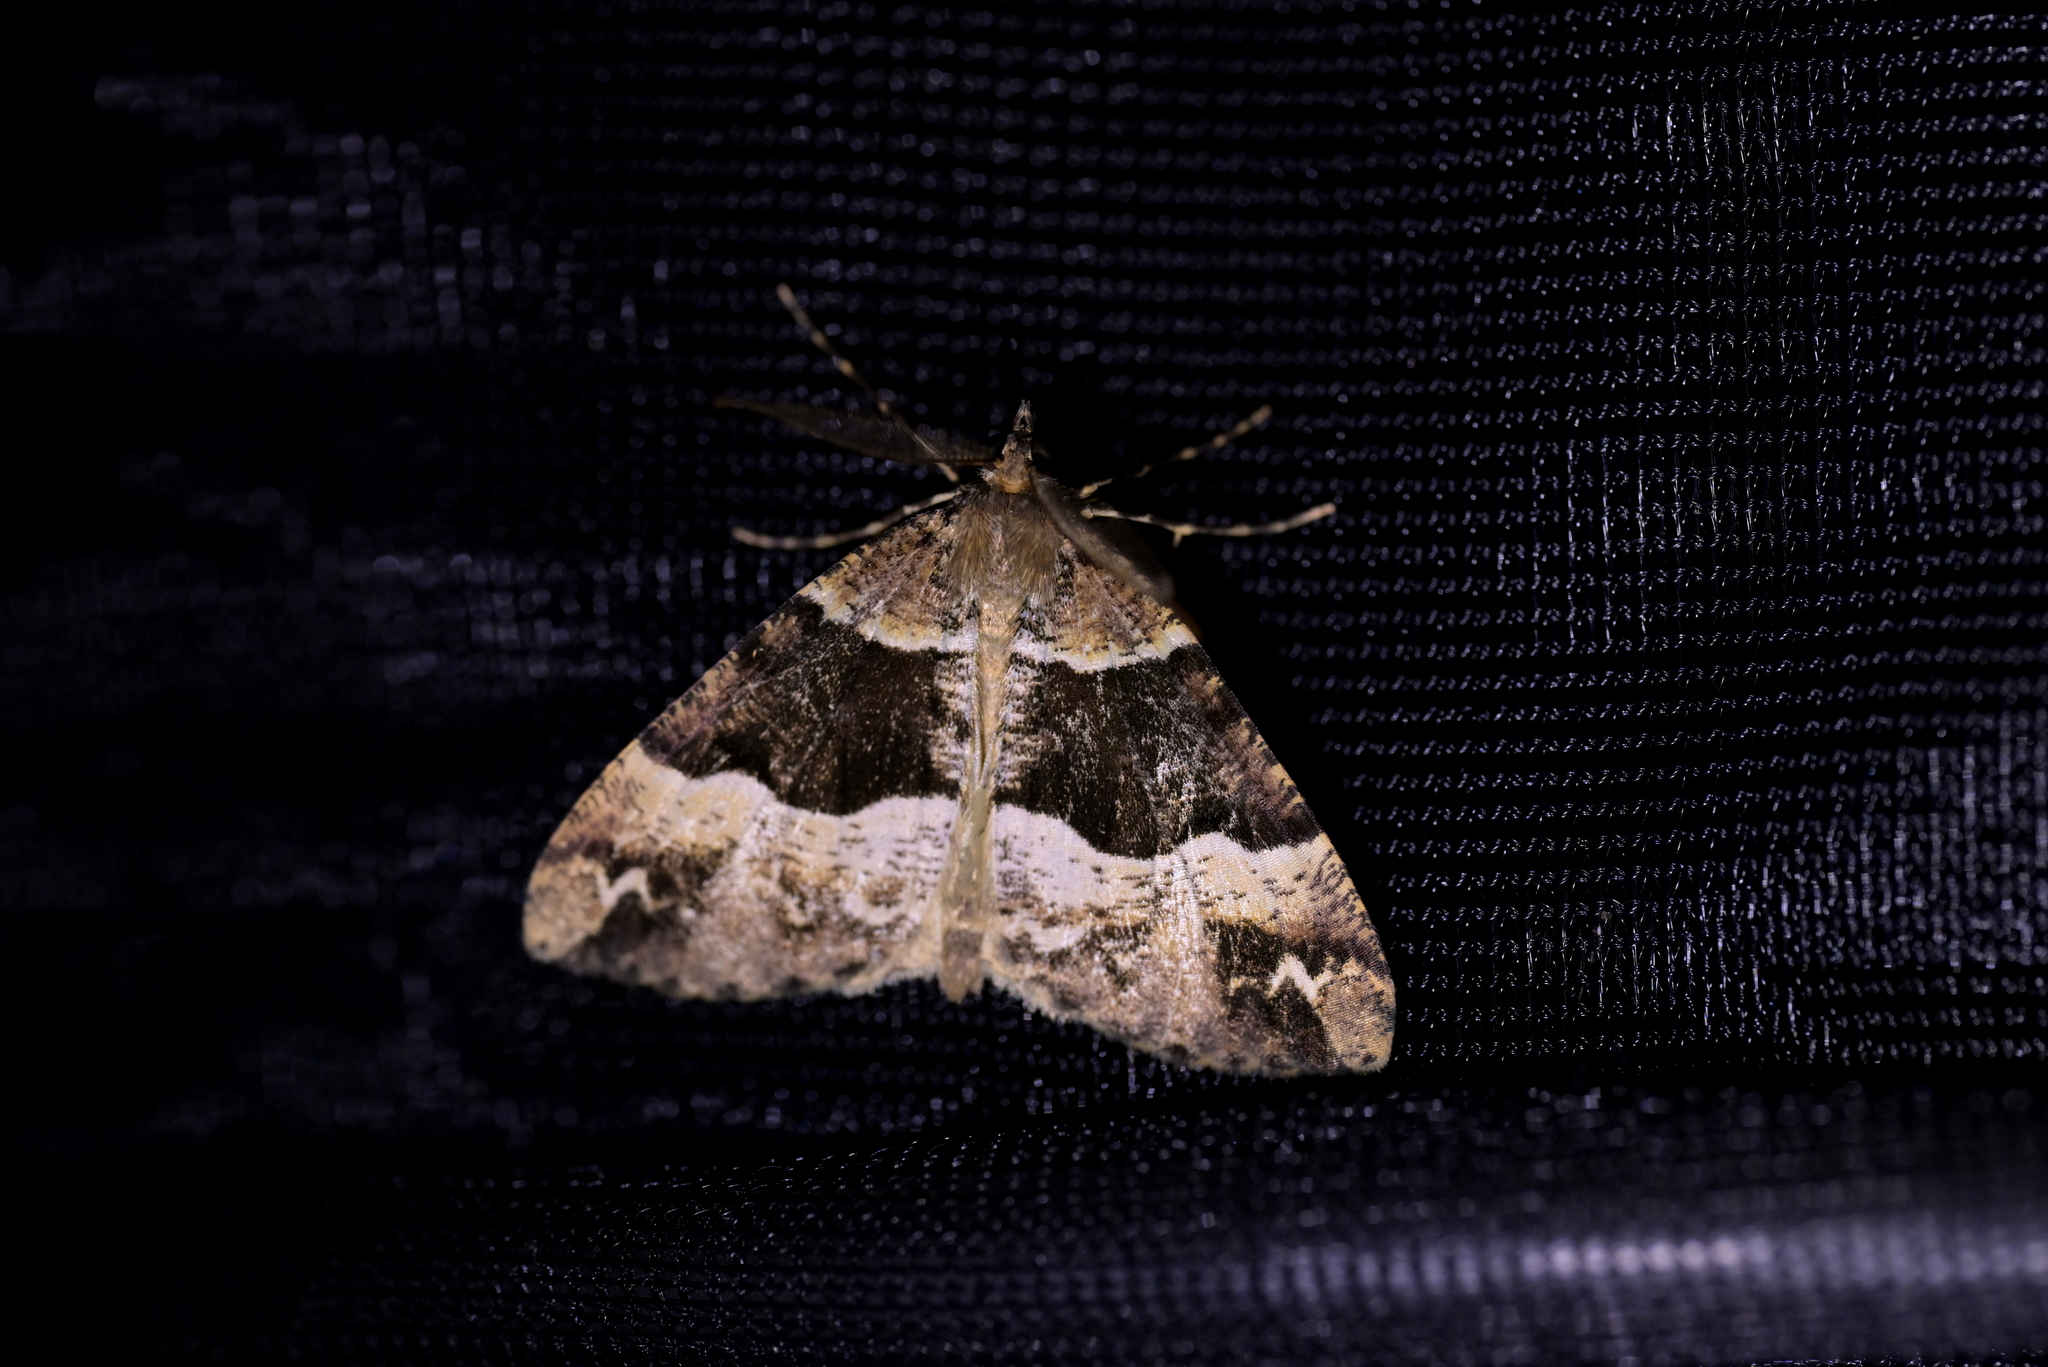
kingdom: Animalia
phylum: Arthropoda
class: Insecta
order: Lepidoptera
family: Geometridae
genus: Pseudocoremia
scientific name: Pseudocoremia fascialata
